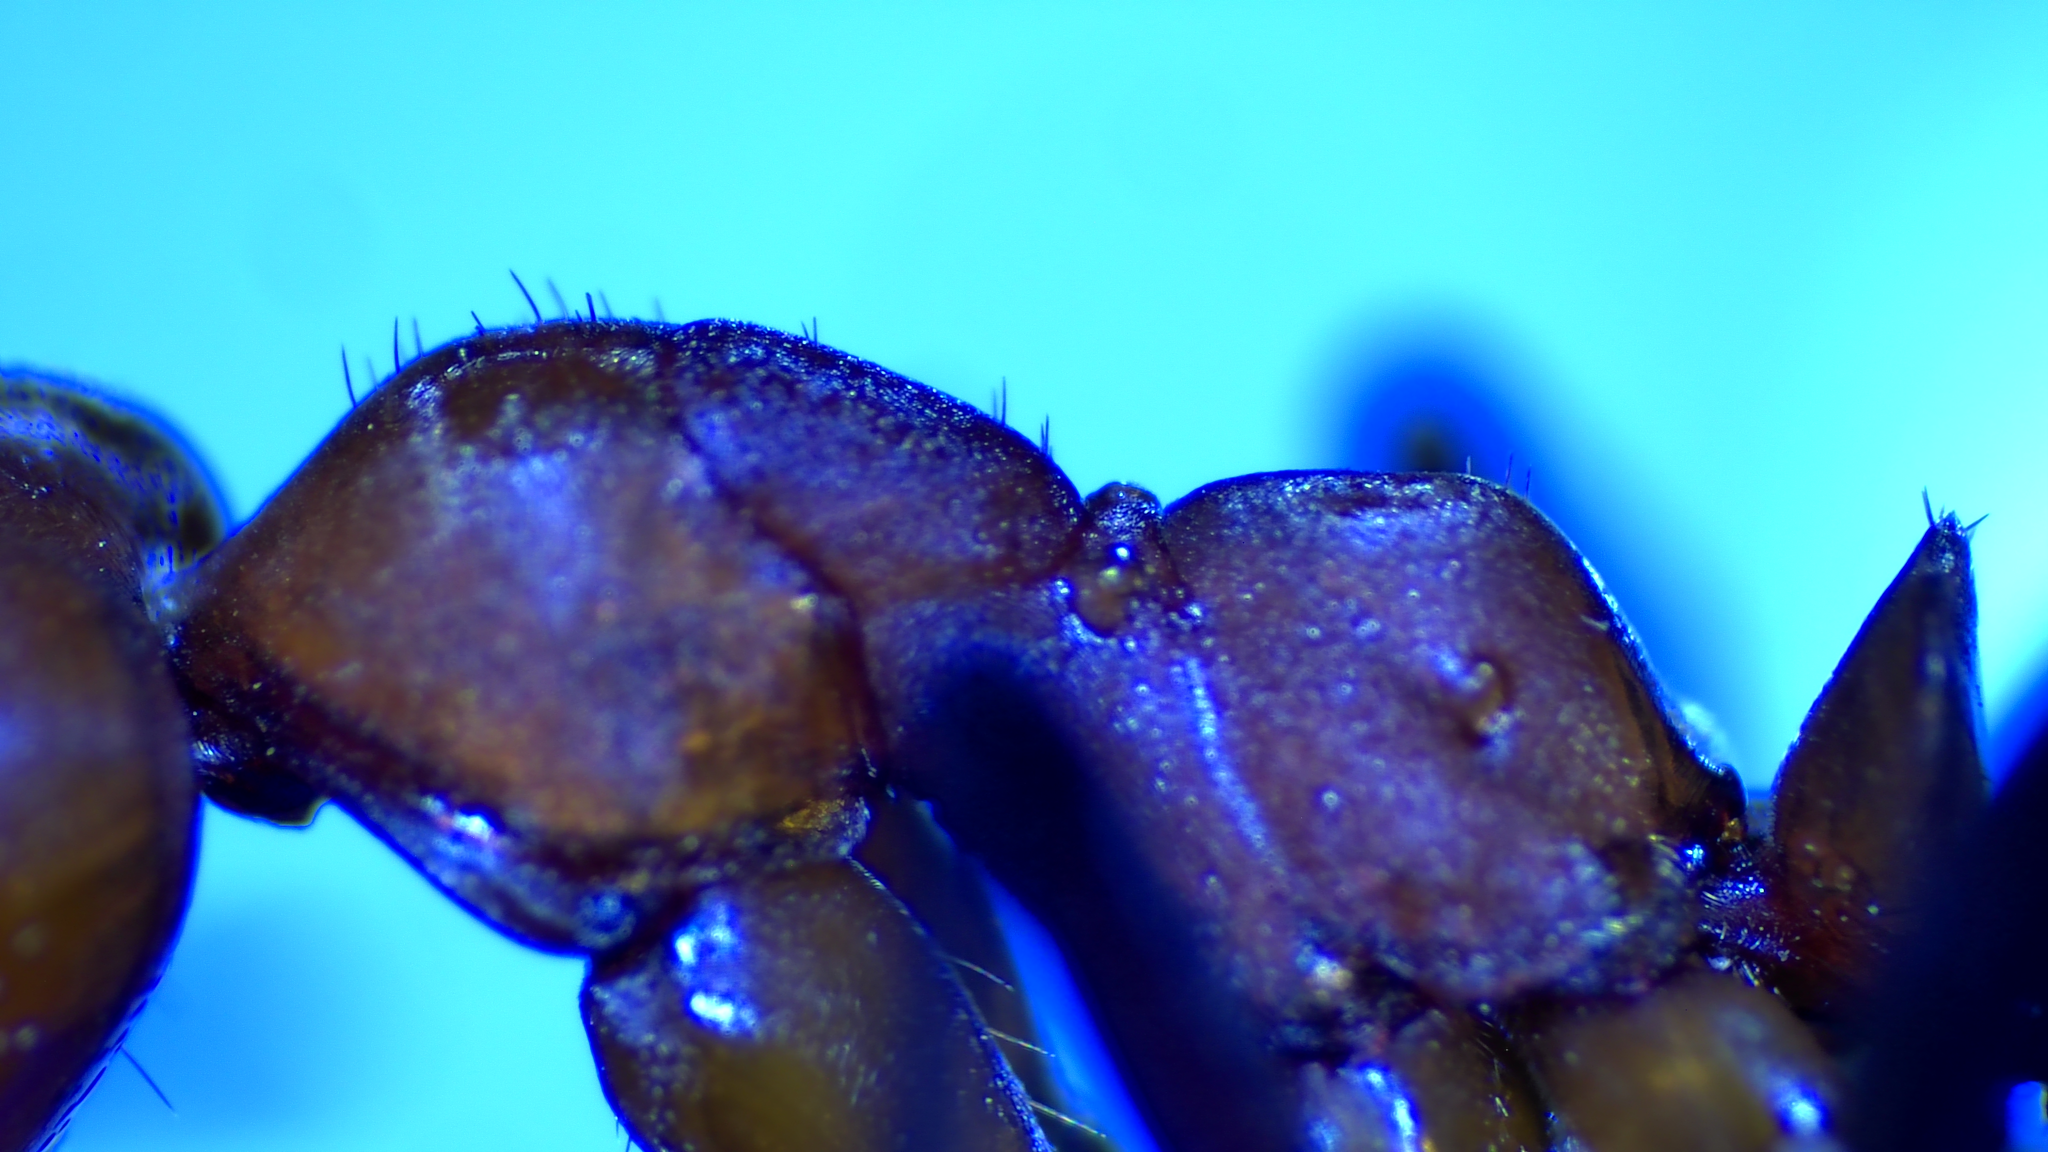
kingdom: Animalia
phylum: Arthropoda
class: Insecta
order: Hymenoptera
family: Formicidae
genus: Formica
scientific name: Formica rubicunda
